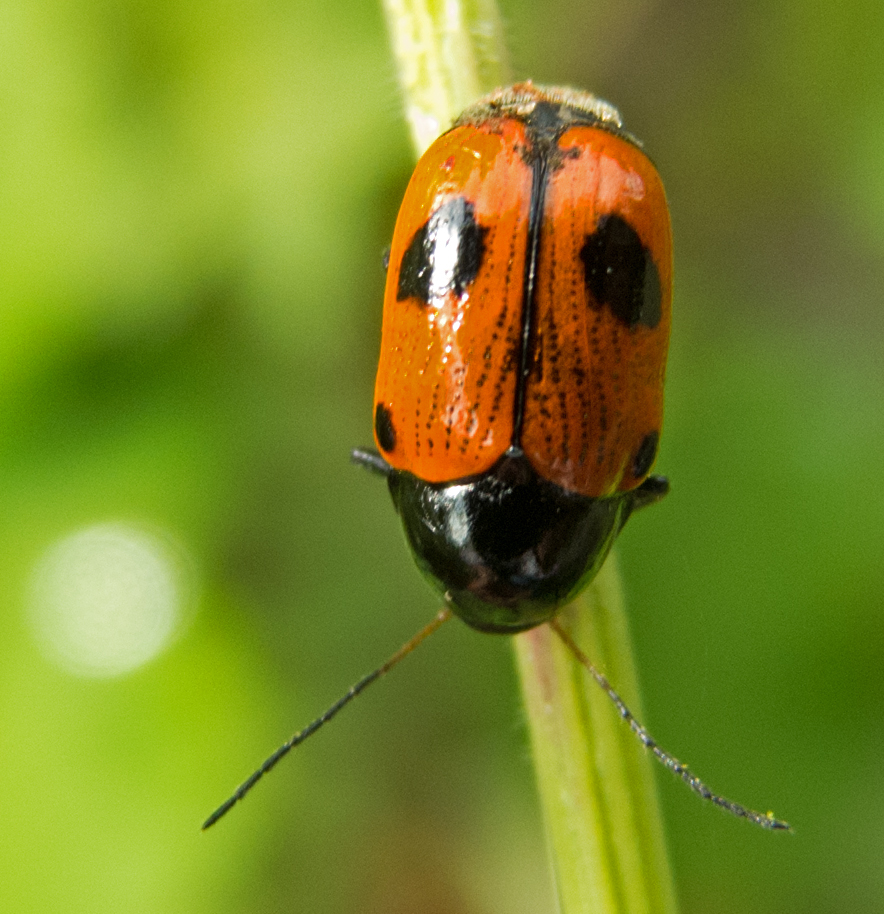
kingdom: Animalia
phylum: Arthropoda
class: Insecta
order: Coleoptera
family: Chrysomelidae
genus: Chiridopsis
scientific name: Chiridopsis bipunctata
